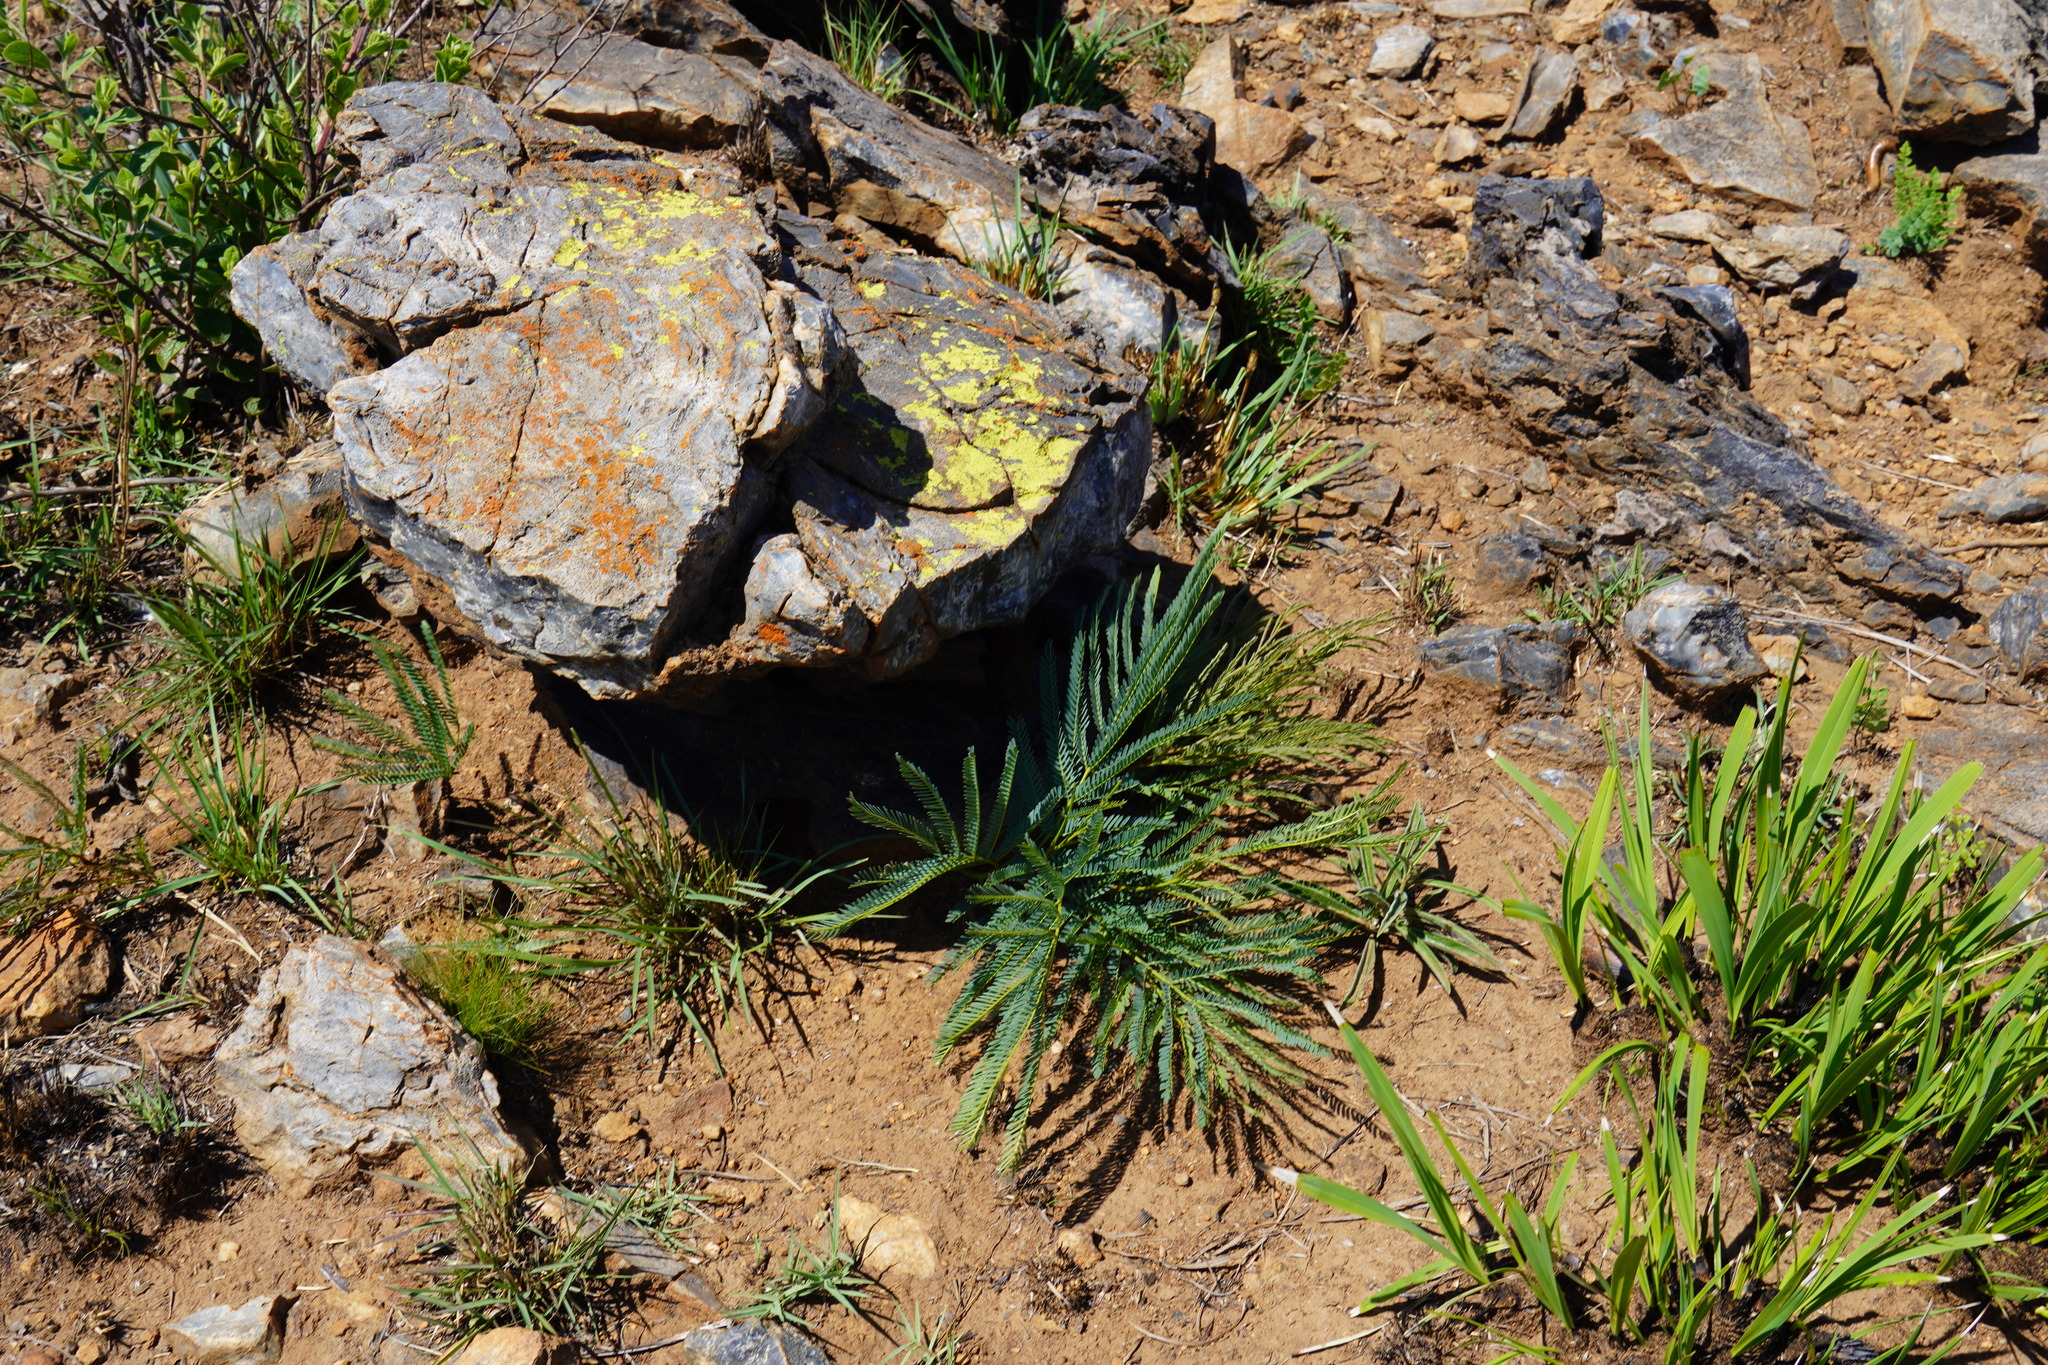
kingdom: Plantae
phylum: Tracheophyta
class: Magnoliopsida
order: Fabales
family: Fabaceae
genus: Elephantorrhiza
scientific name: Elephantorrhiza elephantina
